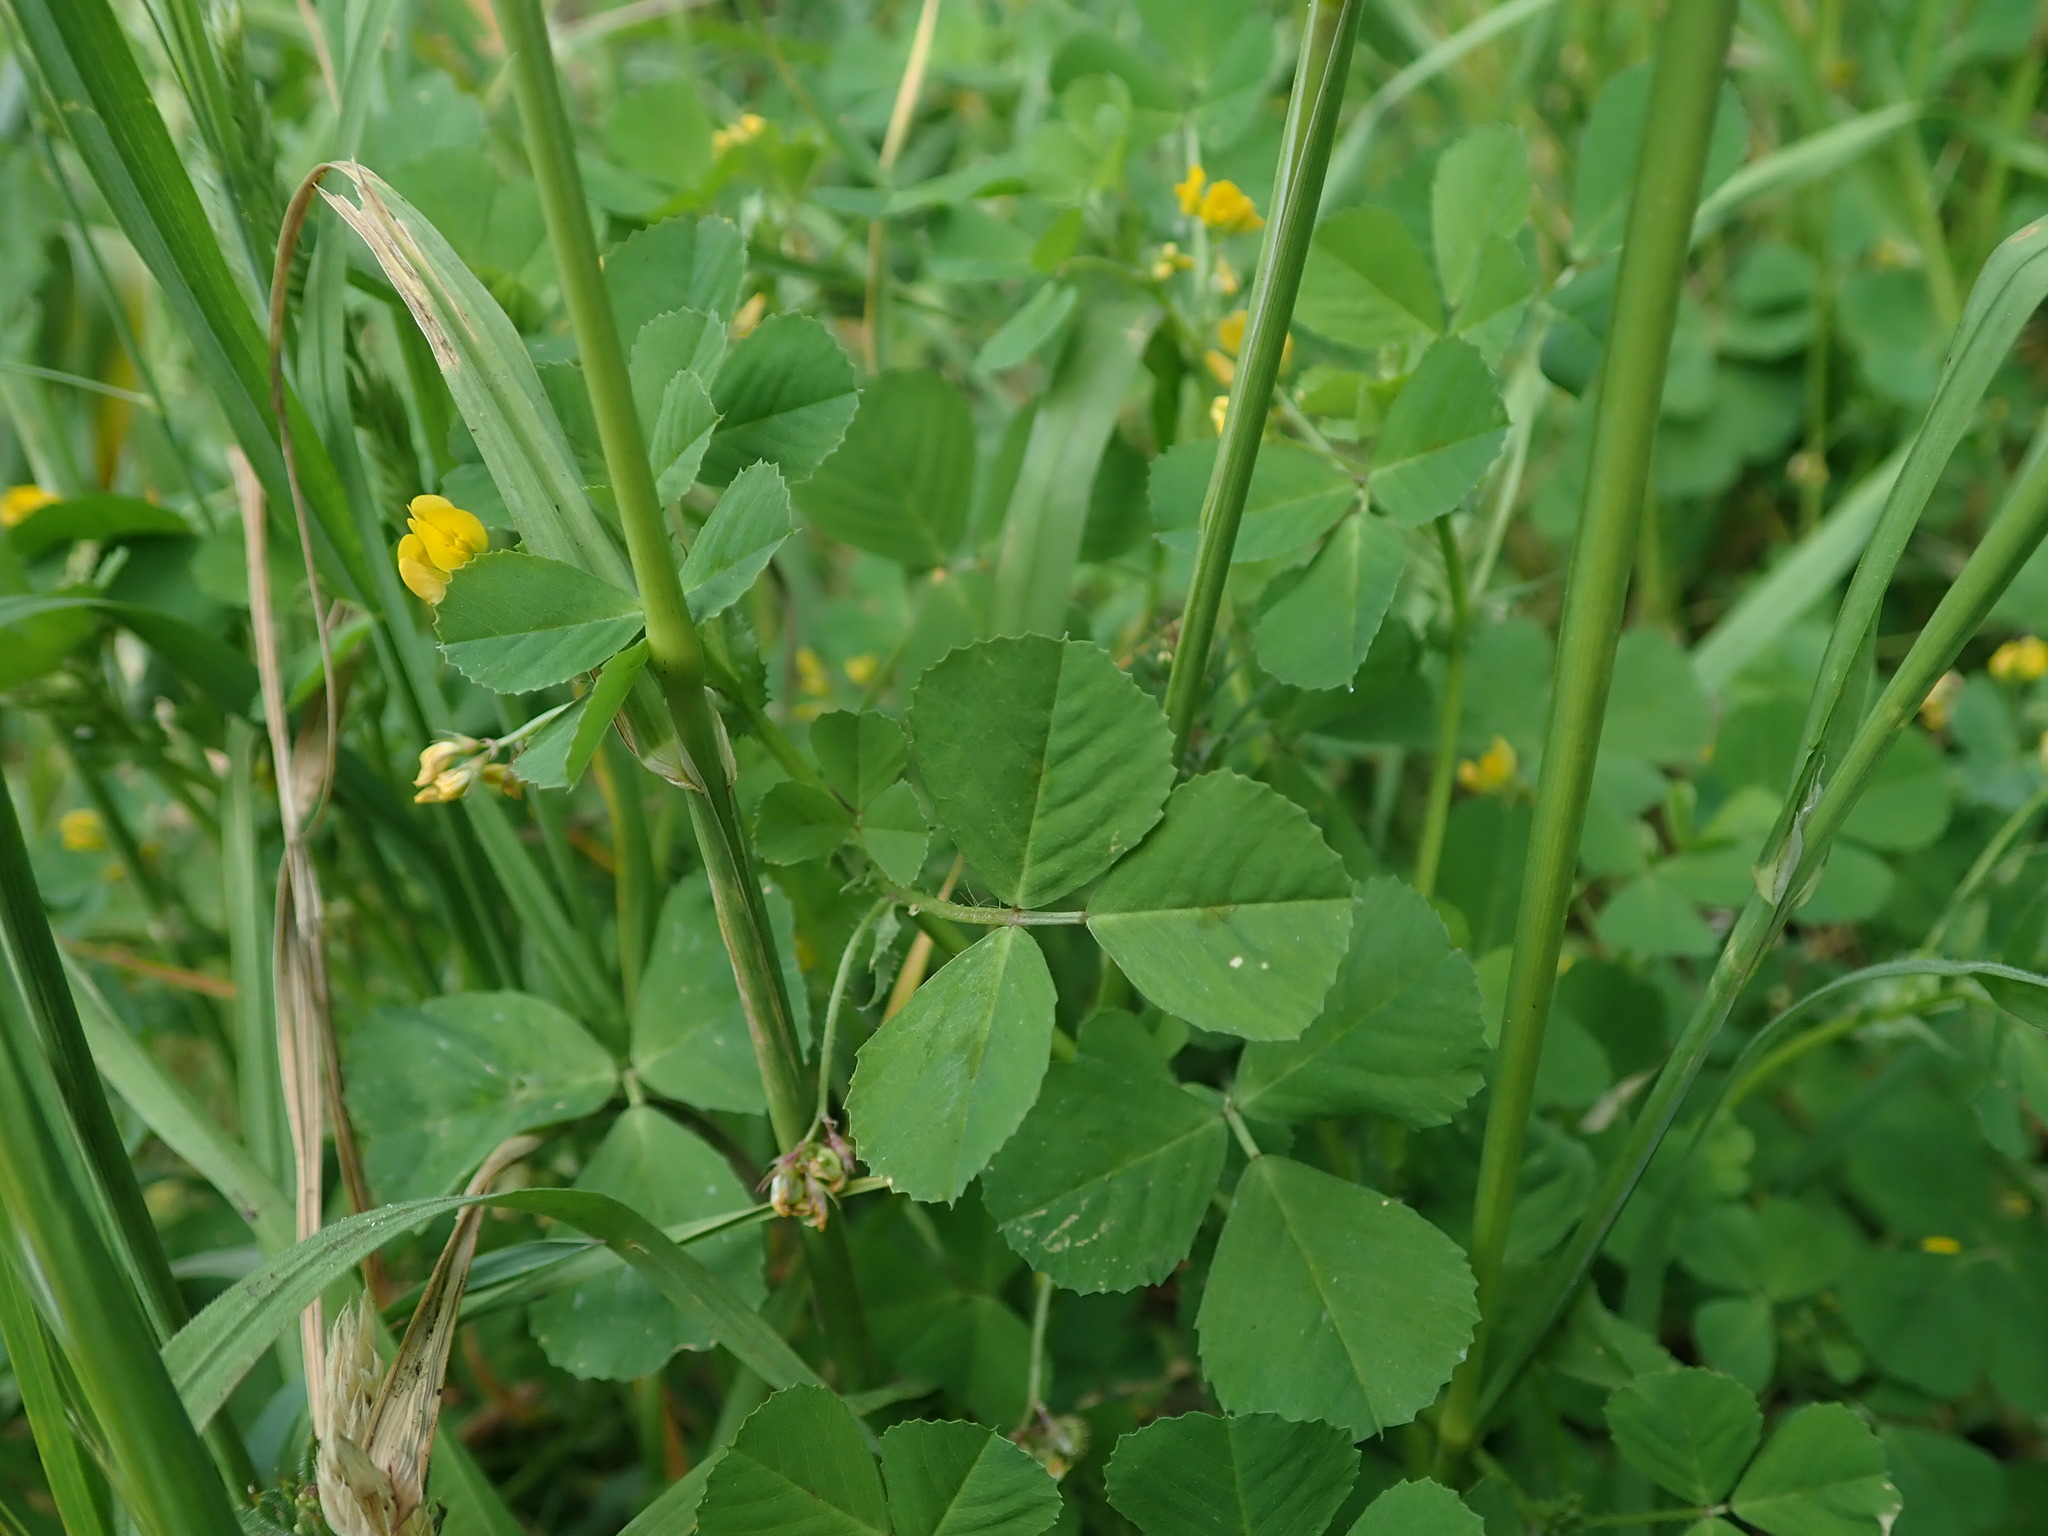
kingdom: Plantae
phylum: Tracheophyta
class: Magnoliopsida
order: Fabales
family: Fabaceae
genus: Medicago
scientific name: Medicago arabica
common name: Spotted medick
